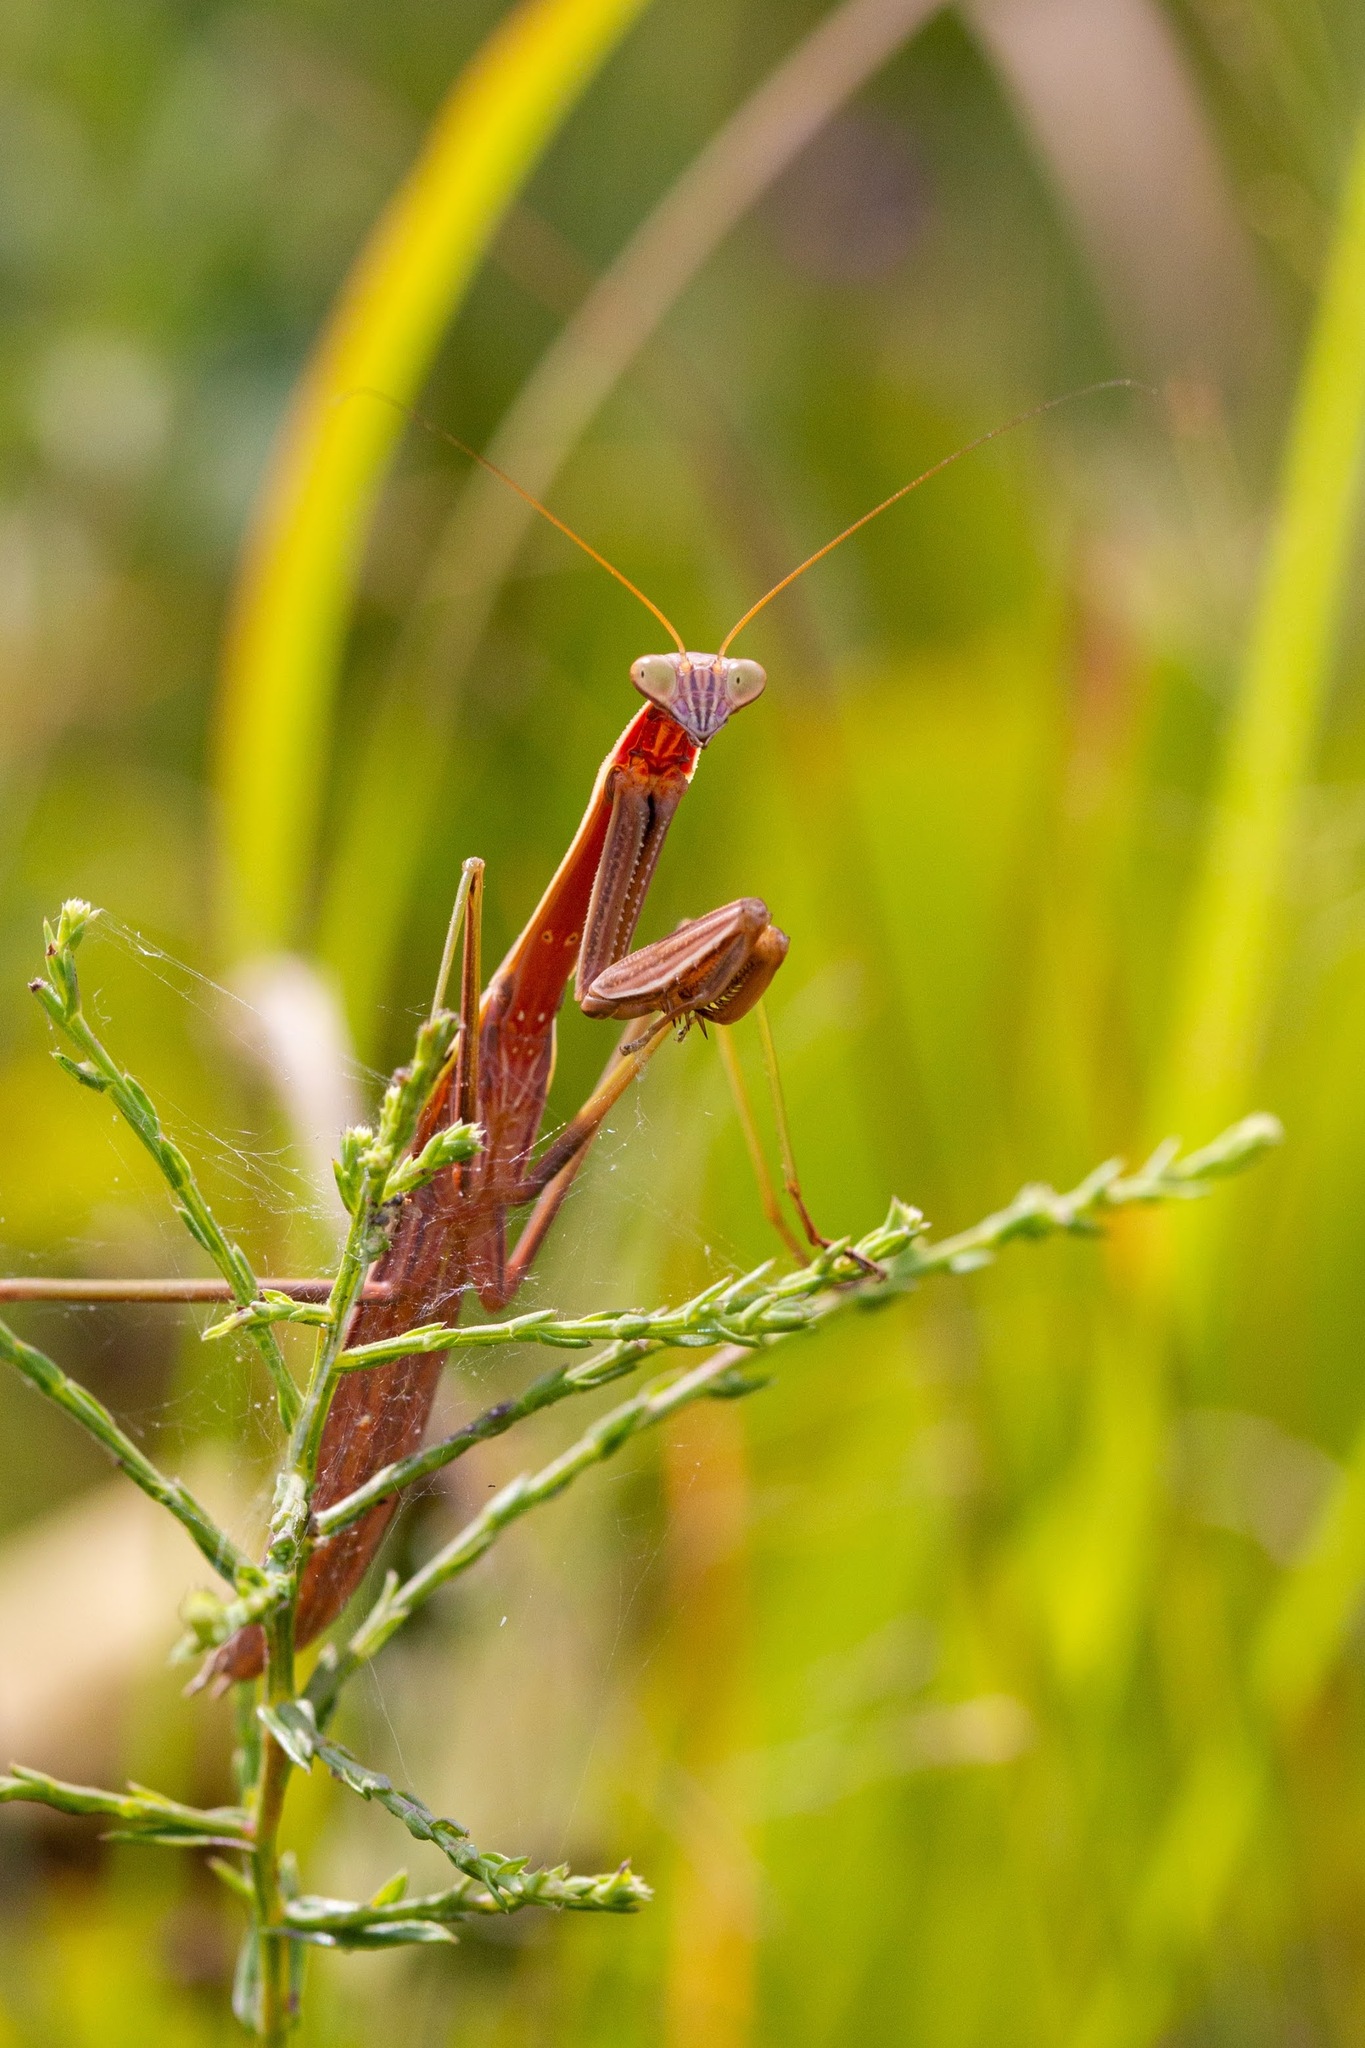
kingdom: Animalia
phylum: Arthropoda
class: Insecta
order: Mantodea
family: Mantidae
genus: Tenodera
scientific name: Tenodera sinensis
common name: Chinese mantis
